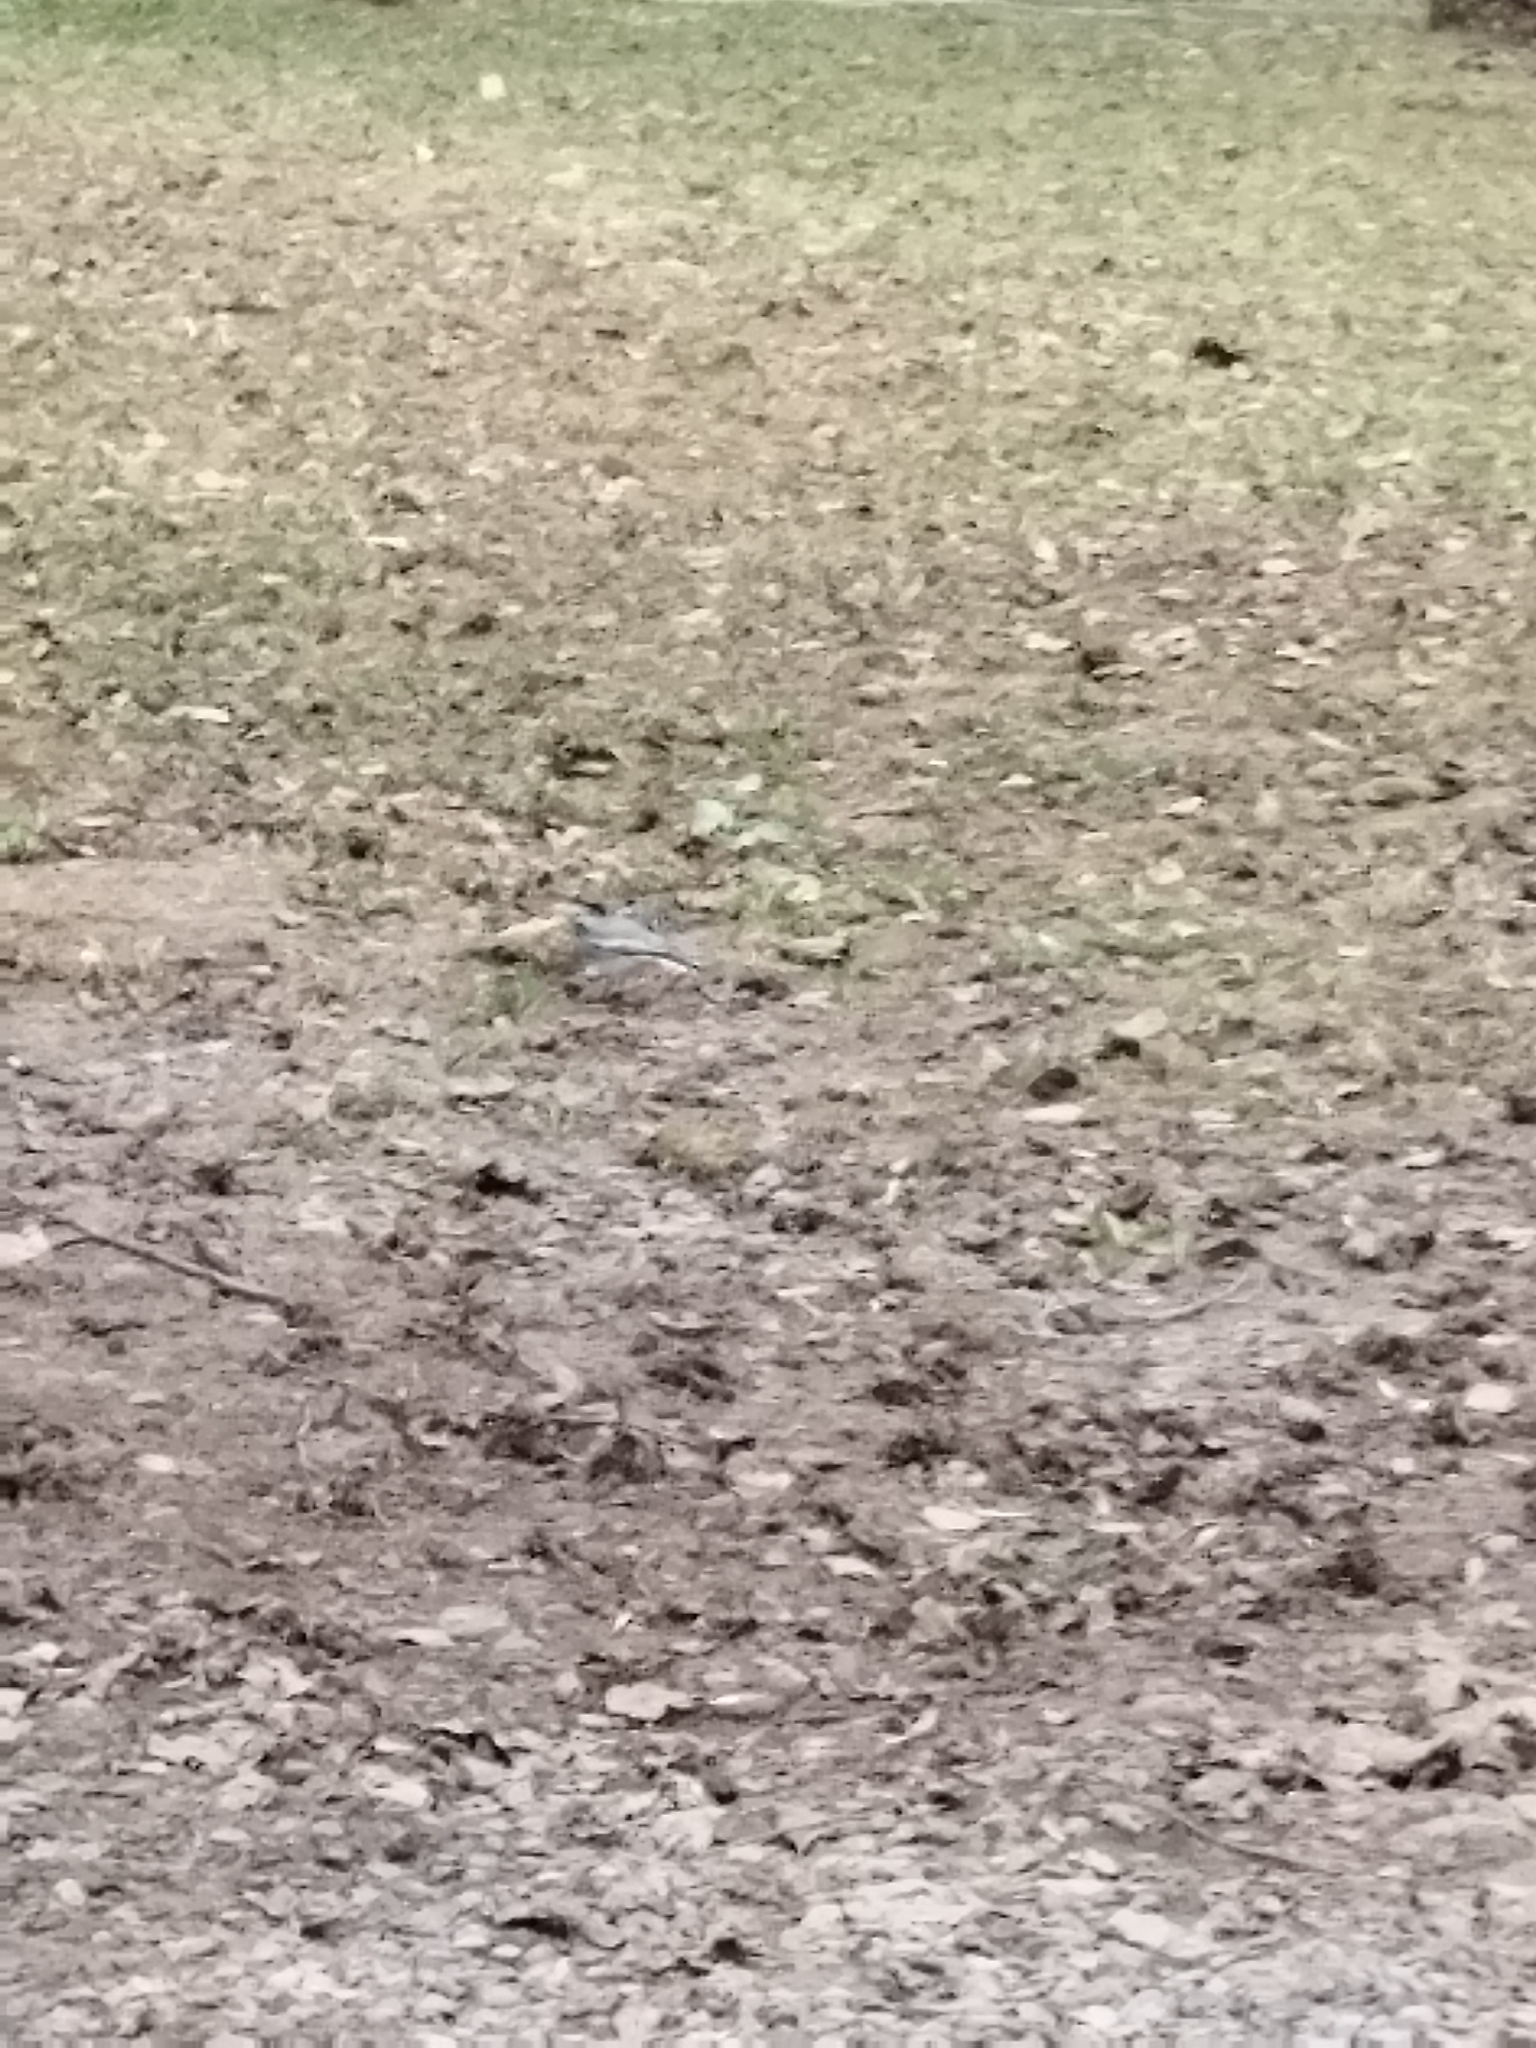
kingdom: Animalia
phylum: Chordata
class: Aves
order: Passeriformes
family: Motacillidae
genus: Motacilla
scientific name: Motacilla alba
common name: White wagtail
